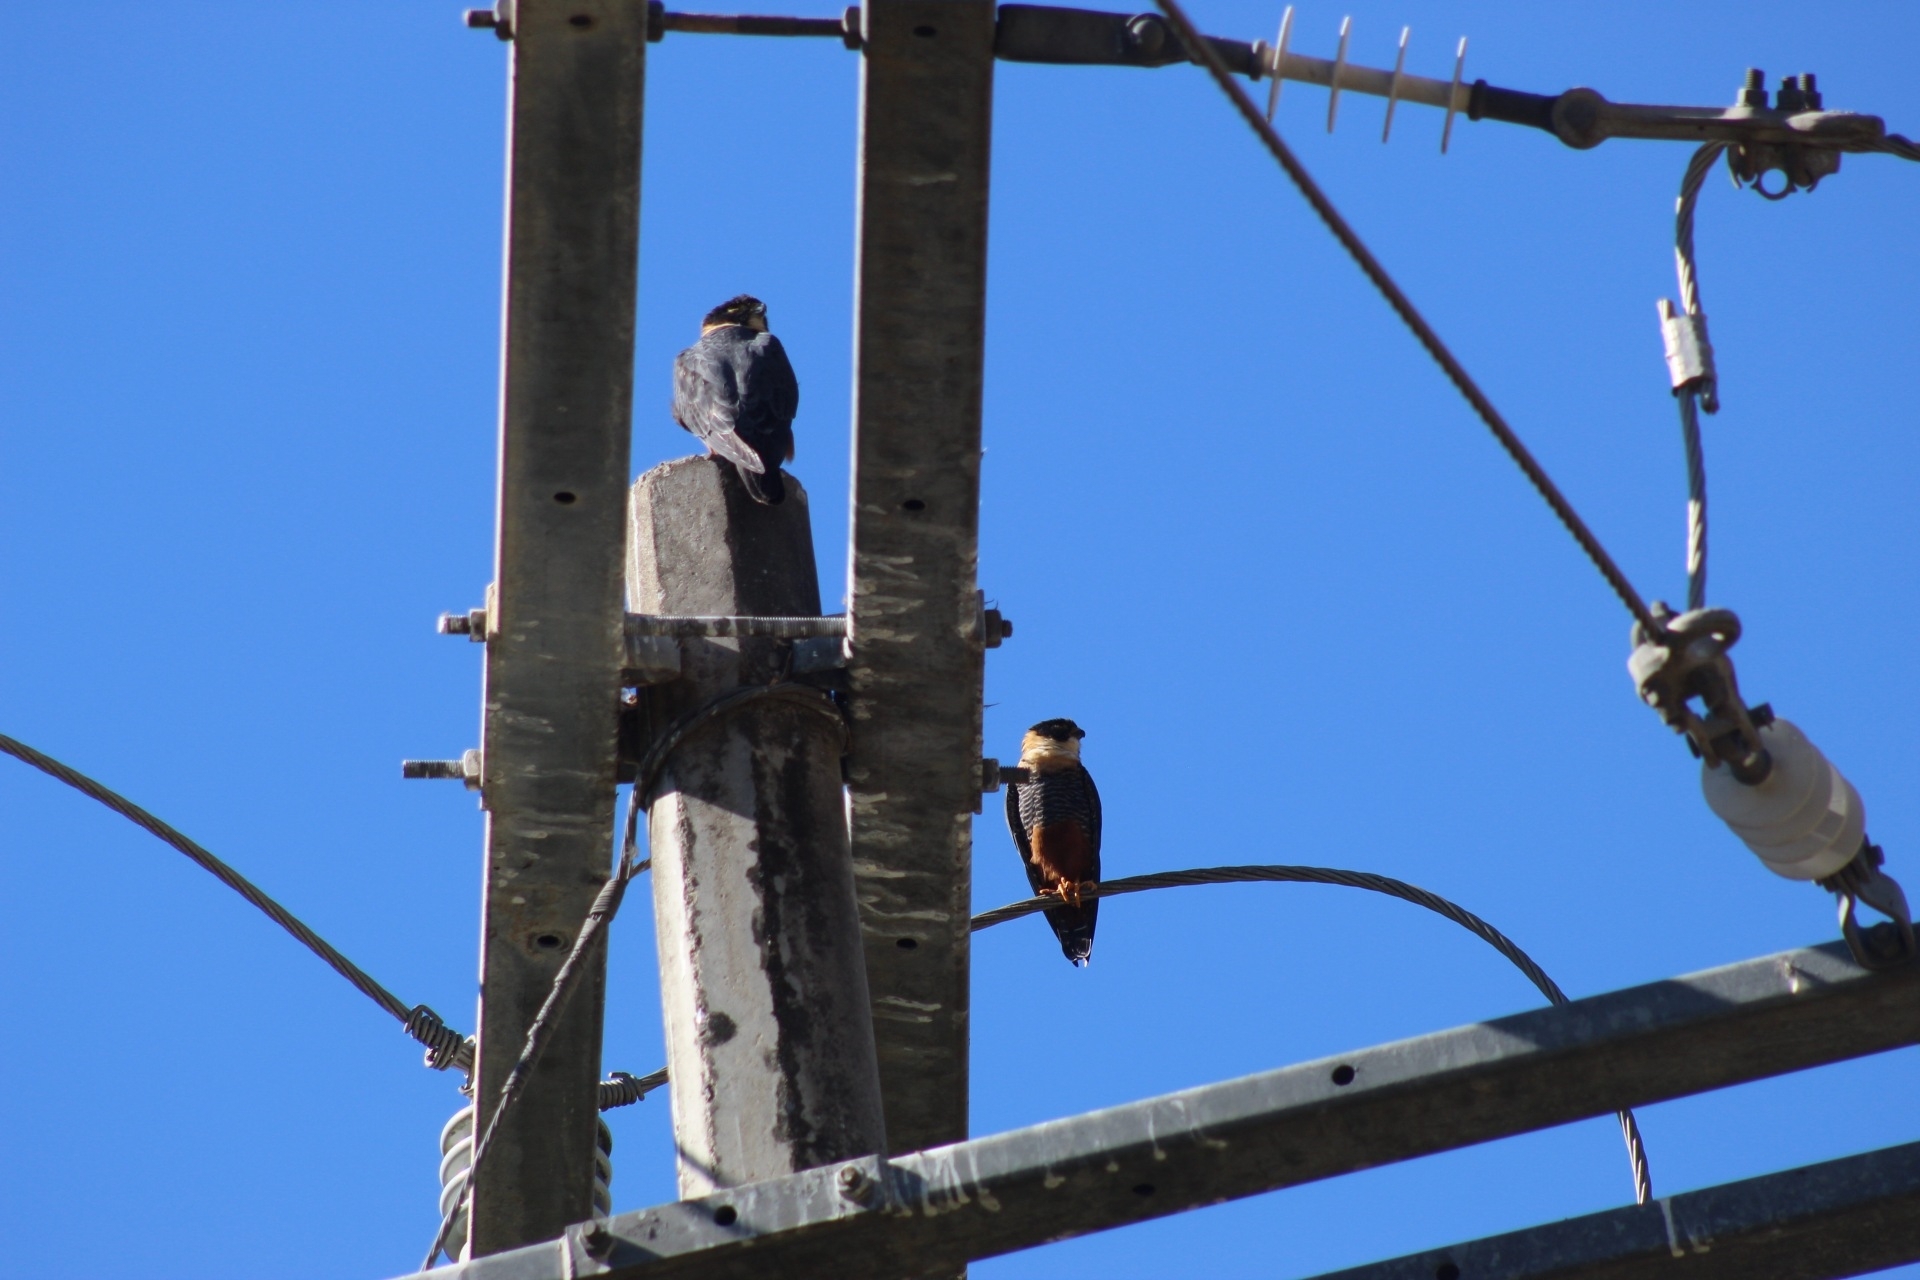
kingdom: Animalia
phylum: Chordata
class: Aves
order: Falconiformes
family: Falconidae
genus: Falco
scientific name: Falco rufigularis
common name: Bat falcon
